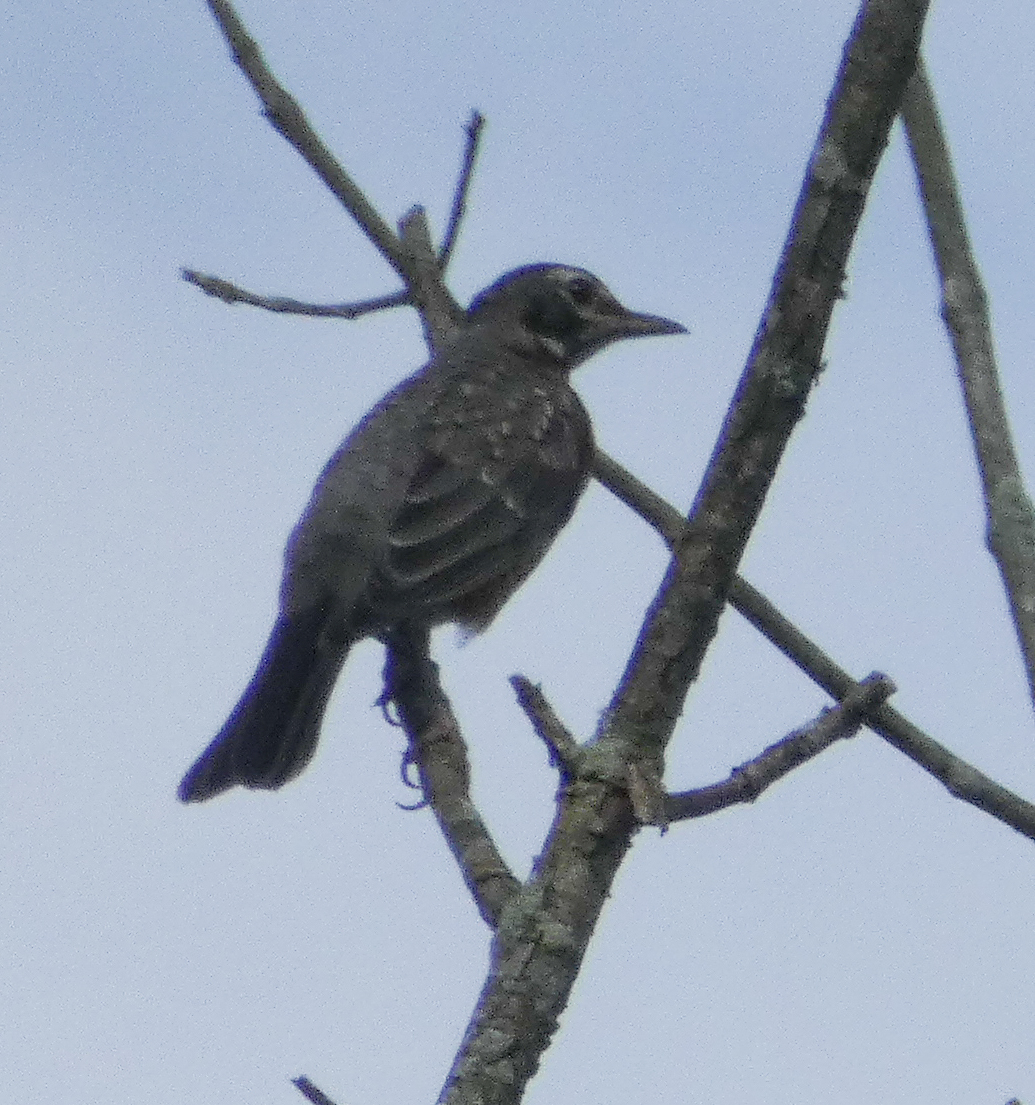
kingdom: Animalia
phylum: Chordata
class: Aves
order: Passeriformes
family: Turdidae
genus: Turdus
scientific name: Turdus migratorius
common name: American robin
